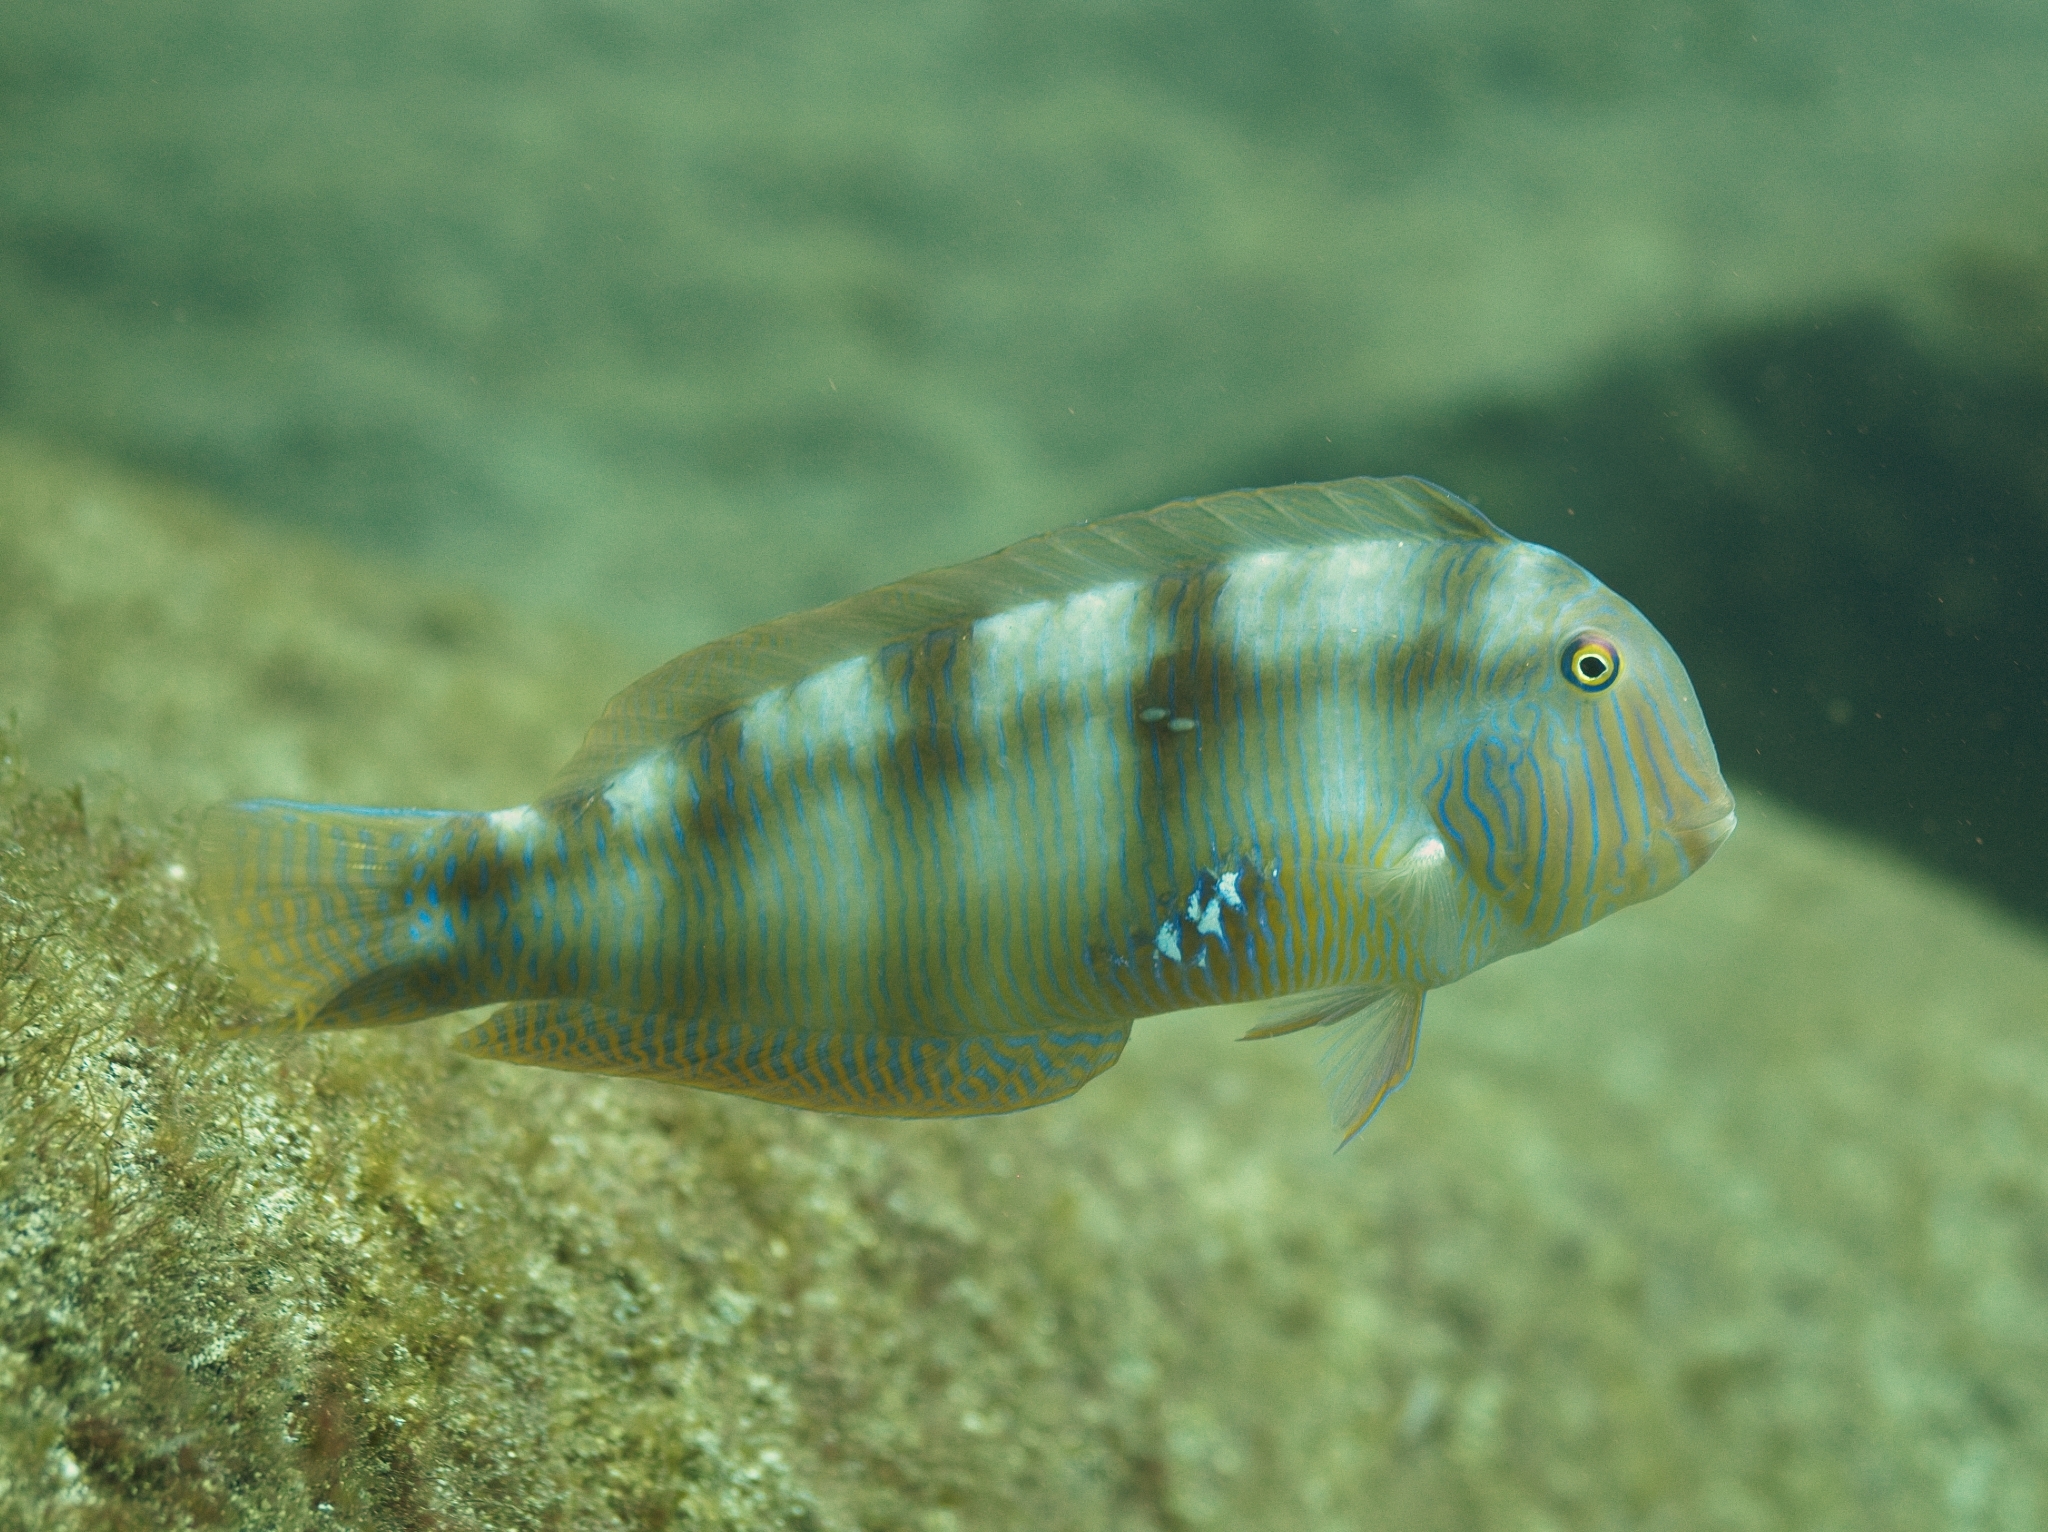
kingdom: Animalia
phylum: Chordata
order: Perciformes
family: Labridae
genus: Xyrichtys
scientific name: Xyrichtys novacula
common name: Pearly razorfish
